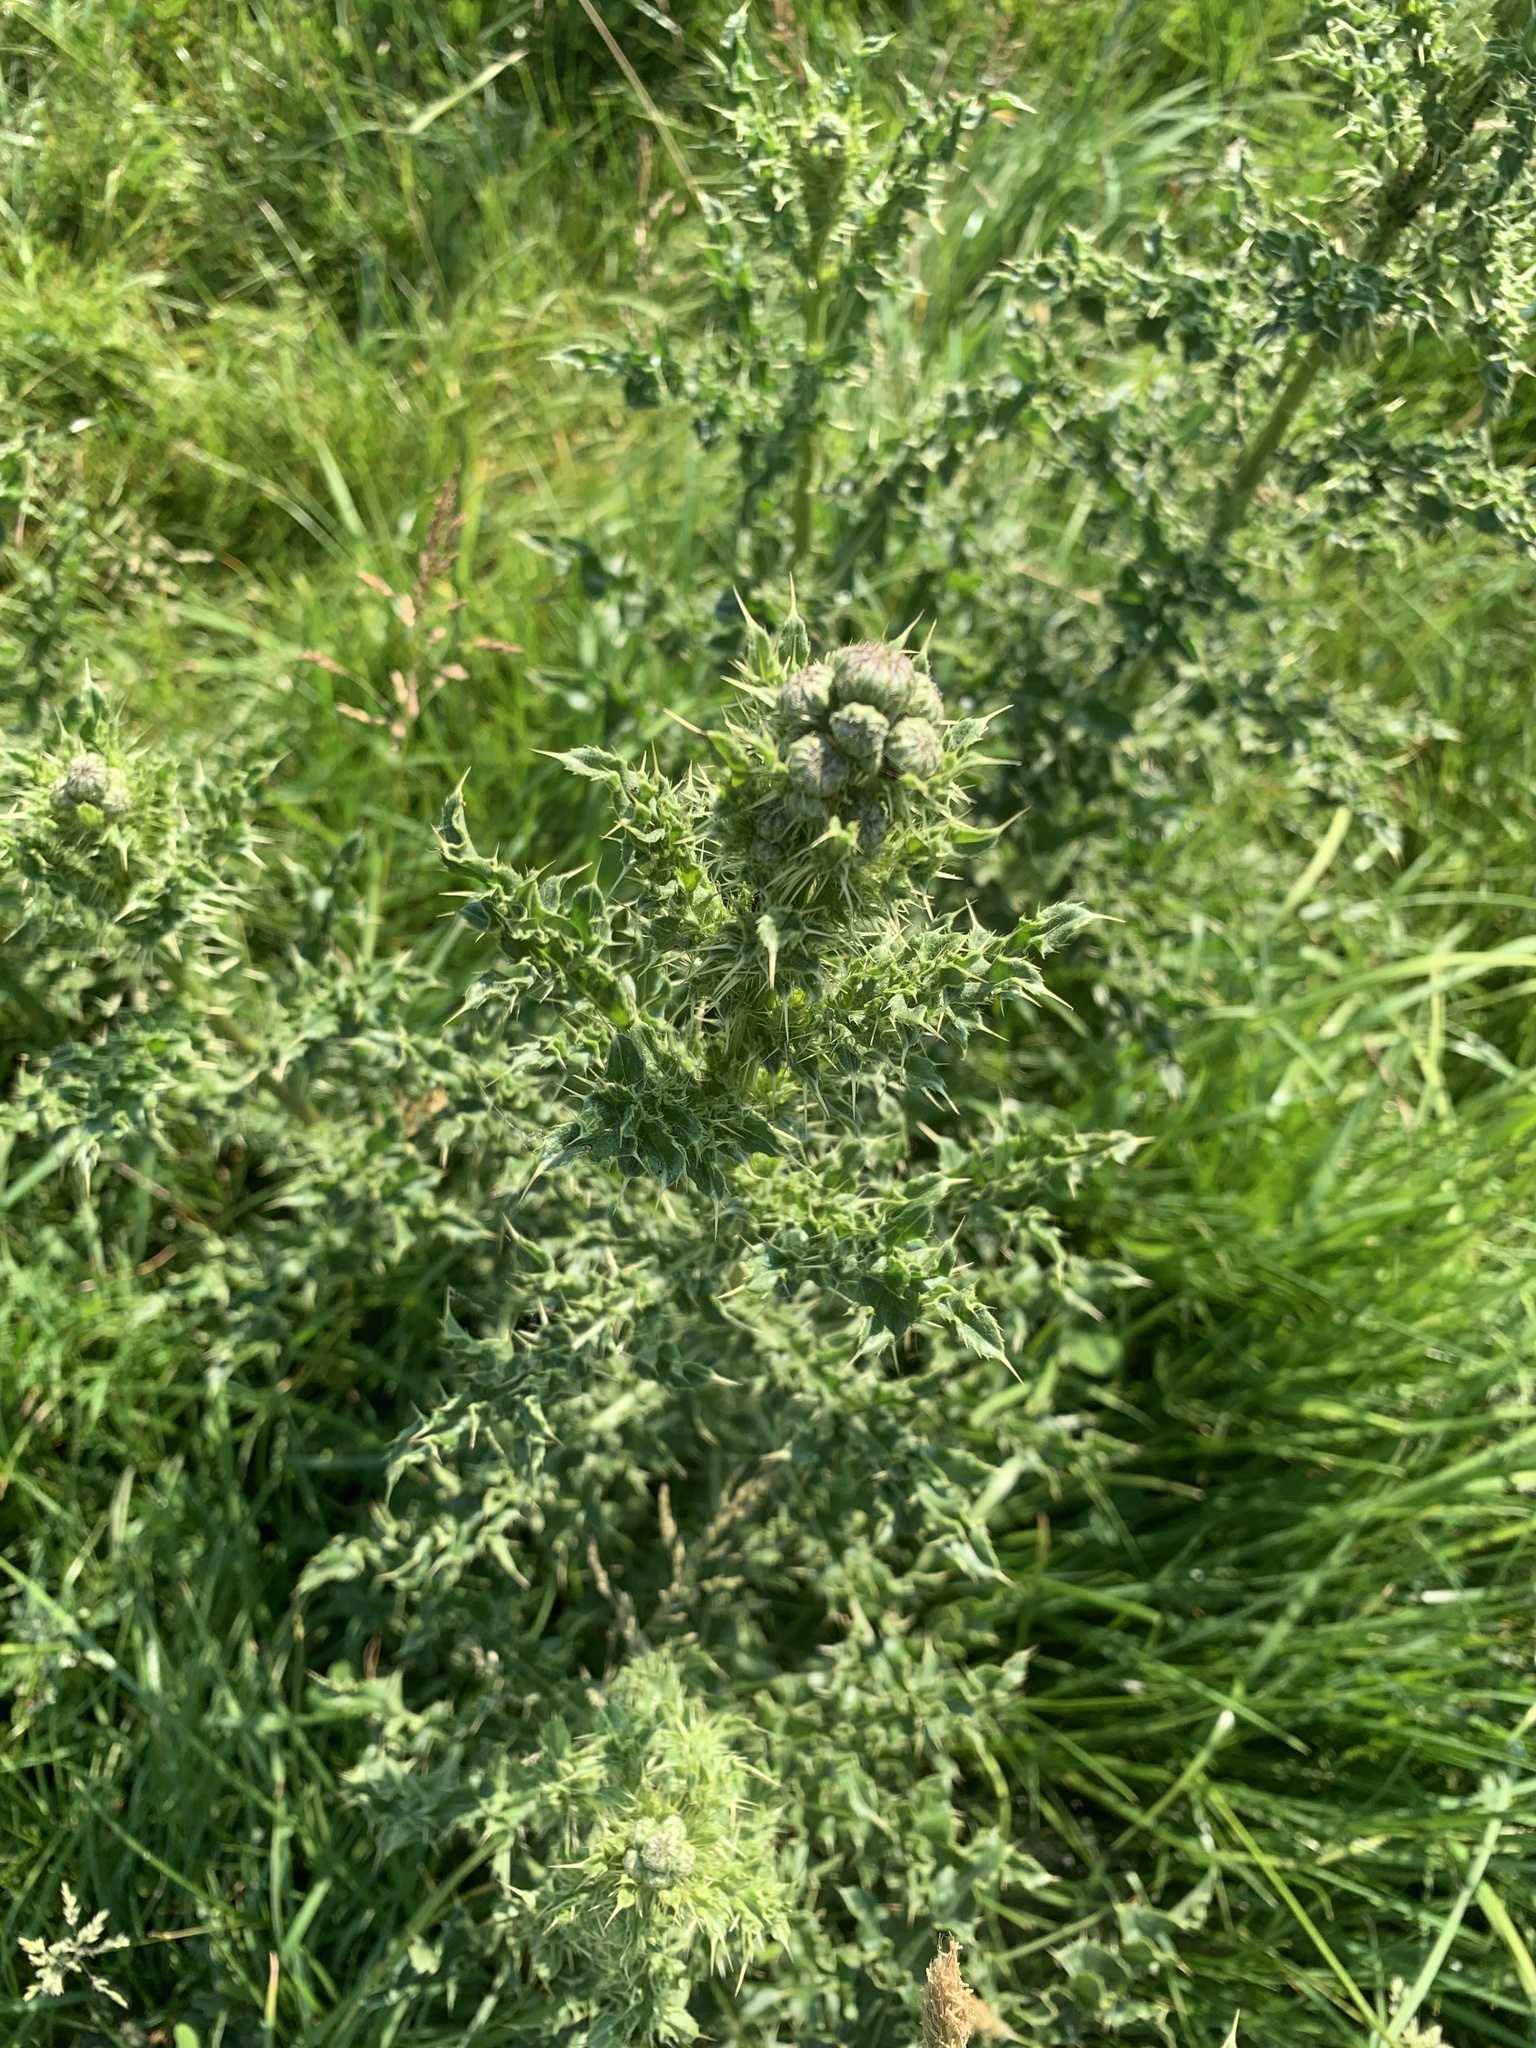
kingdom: Plantae
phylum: Tracheophyta
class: Magnoliopsida
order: Asterales
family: Asteraceae
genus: Cirsium
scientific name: Cirsium arvense
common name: Creeping thistle
